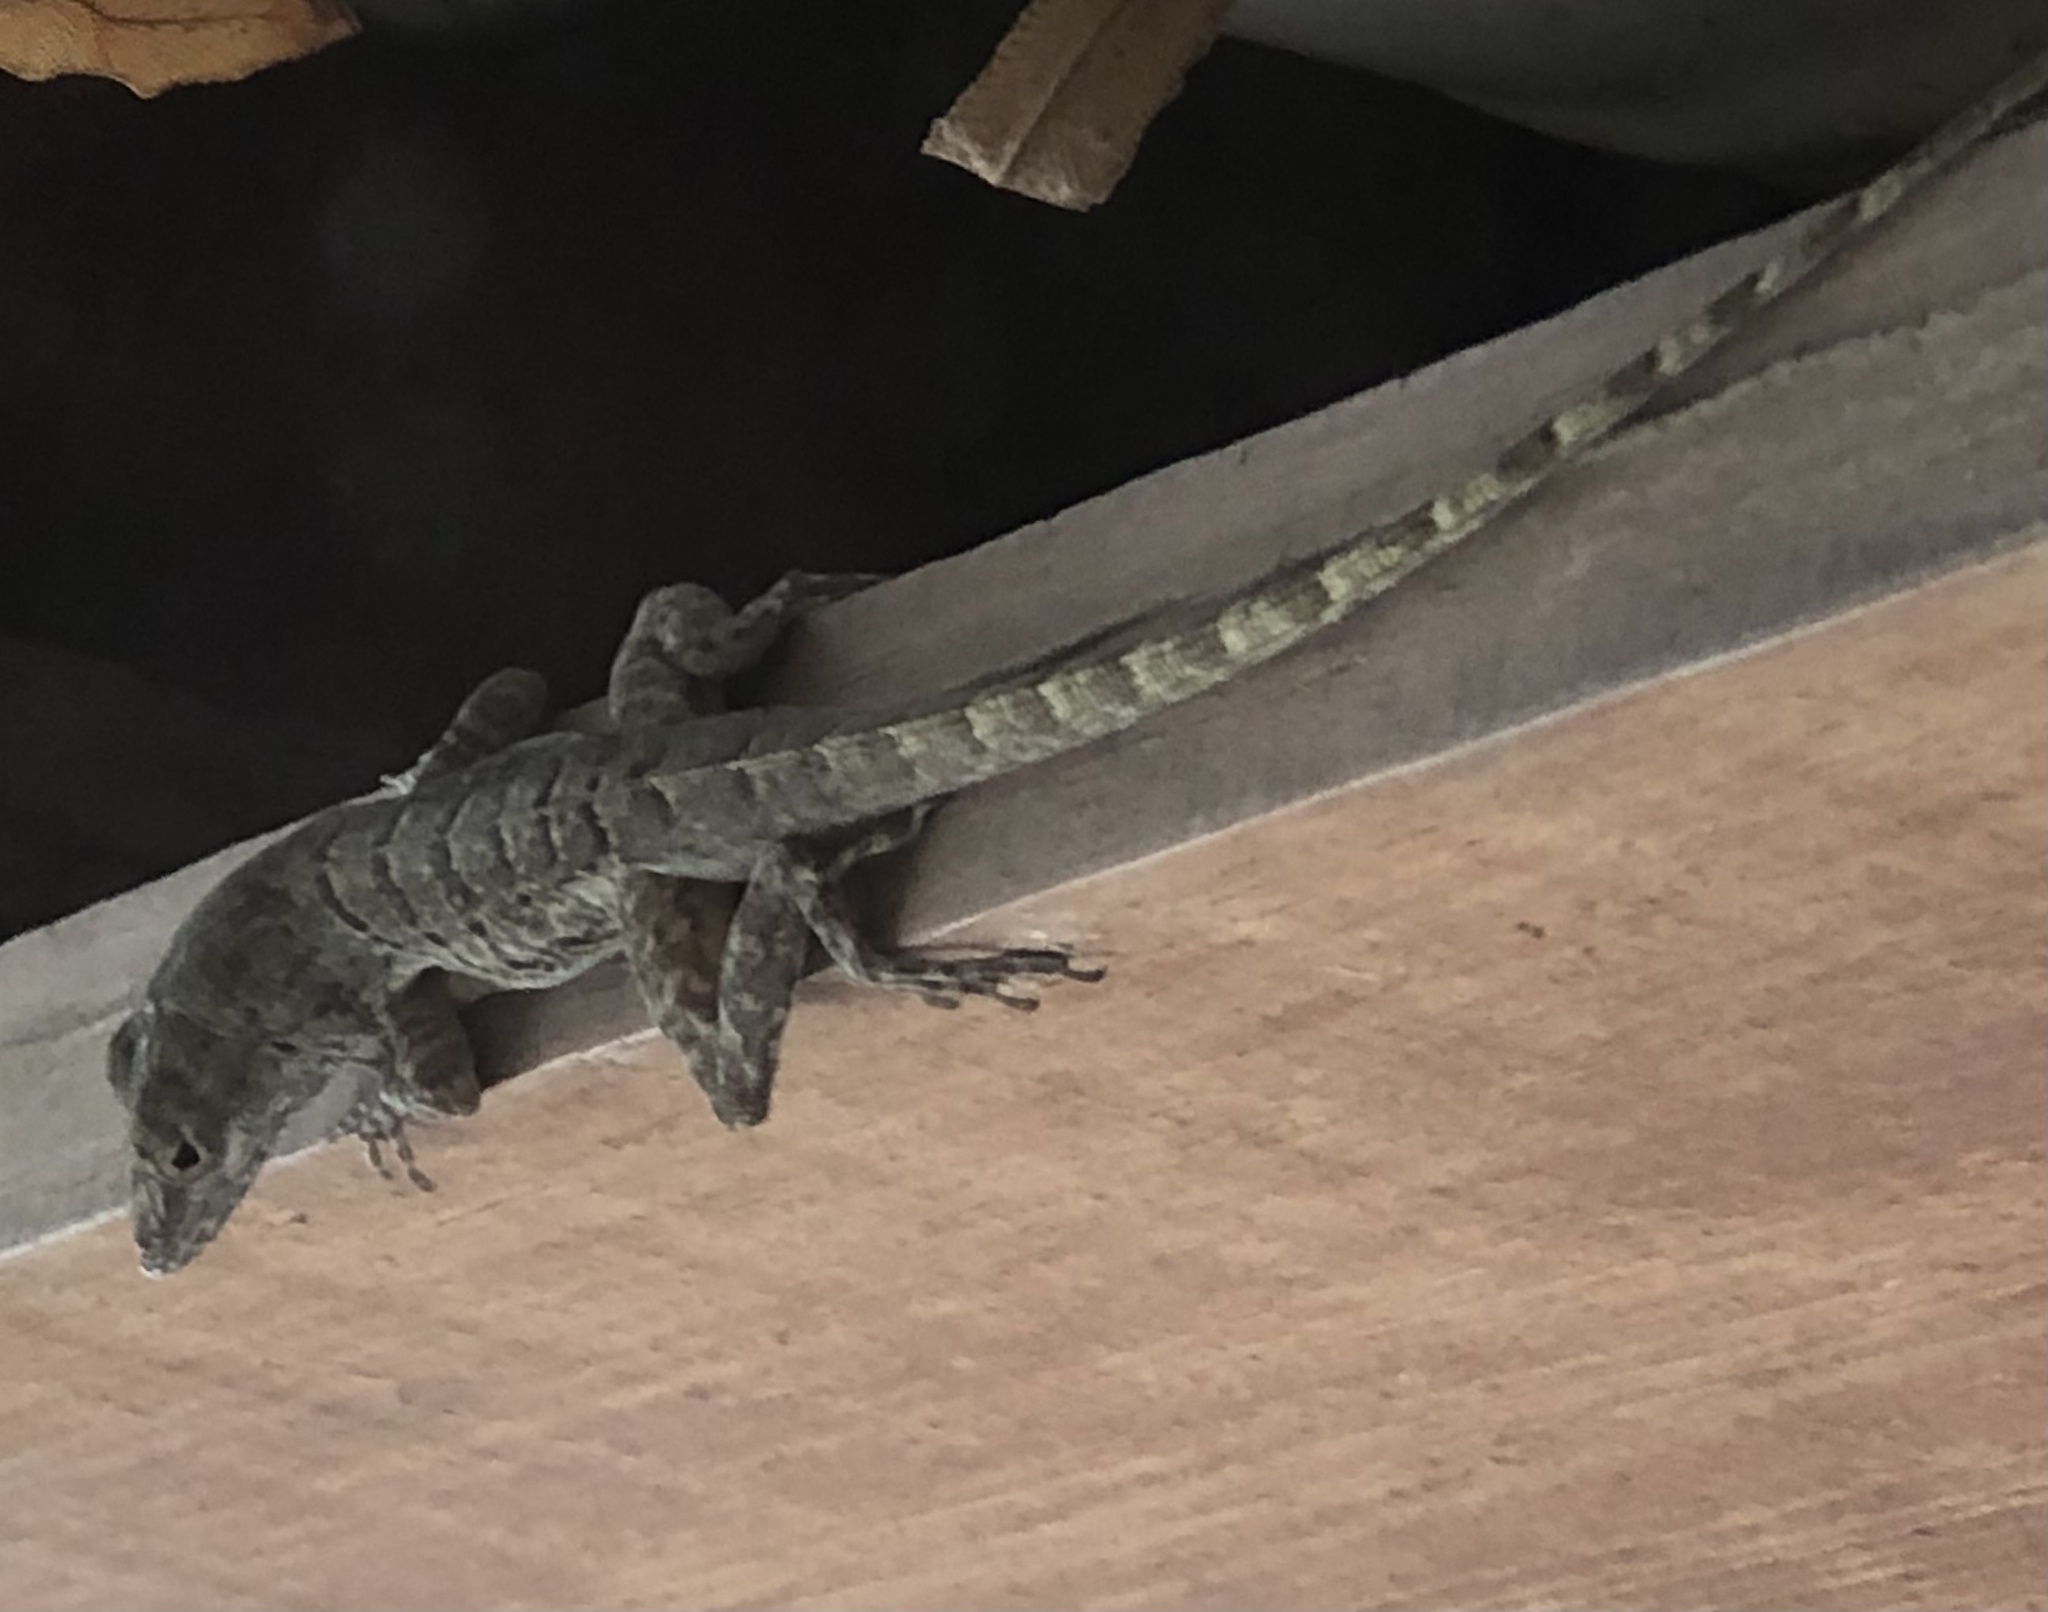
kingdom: Animalia
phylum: Chordata
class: Squamata
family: Dactyloidae
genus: Anolis
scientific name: Anolis bonairensis
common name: Ruthven's anole
